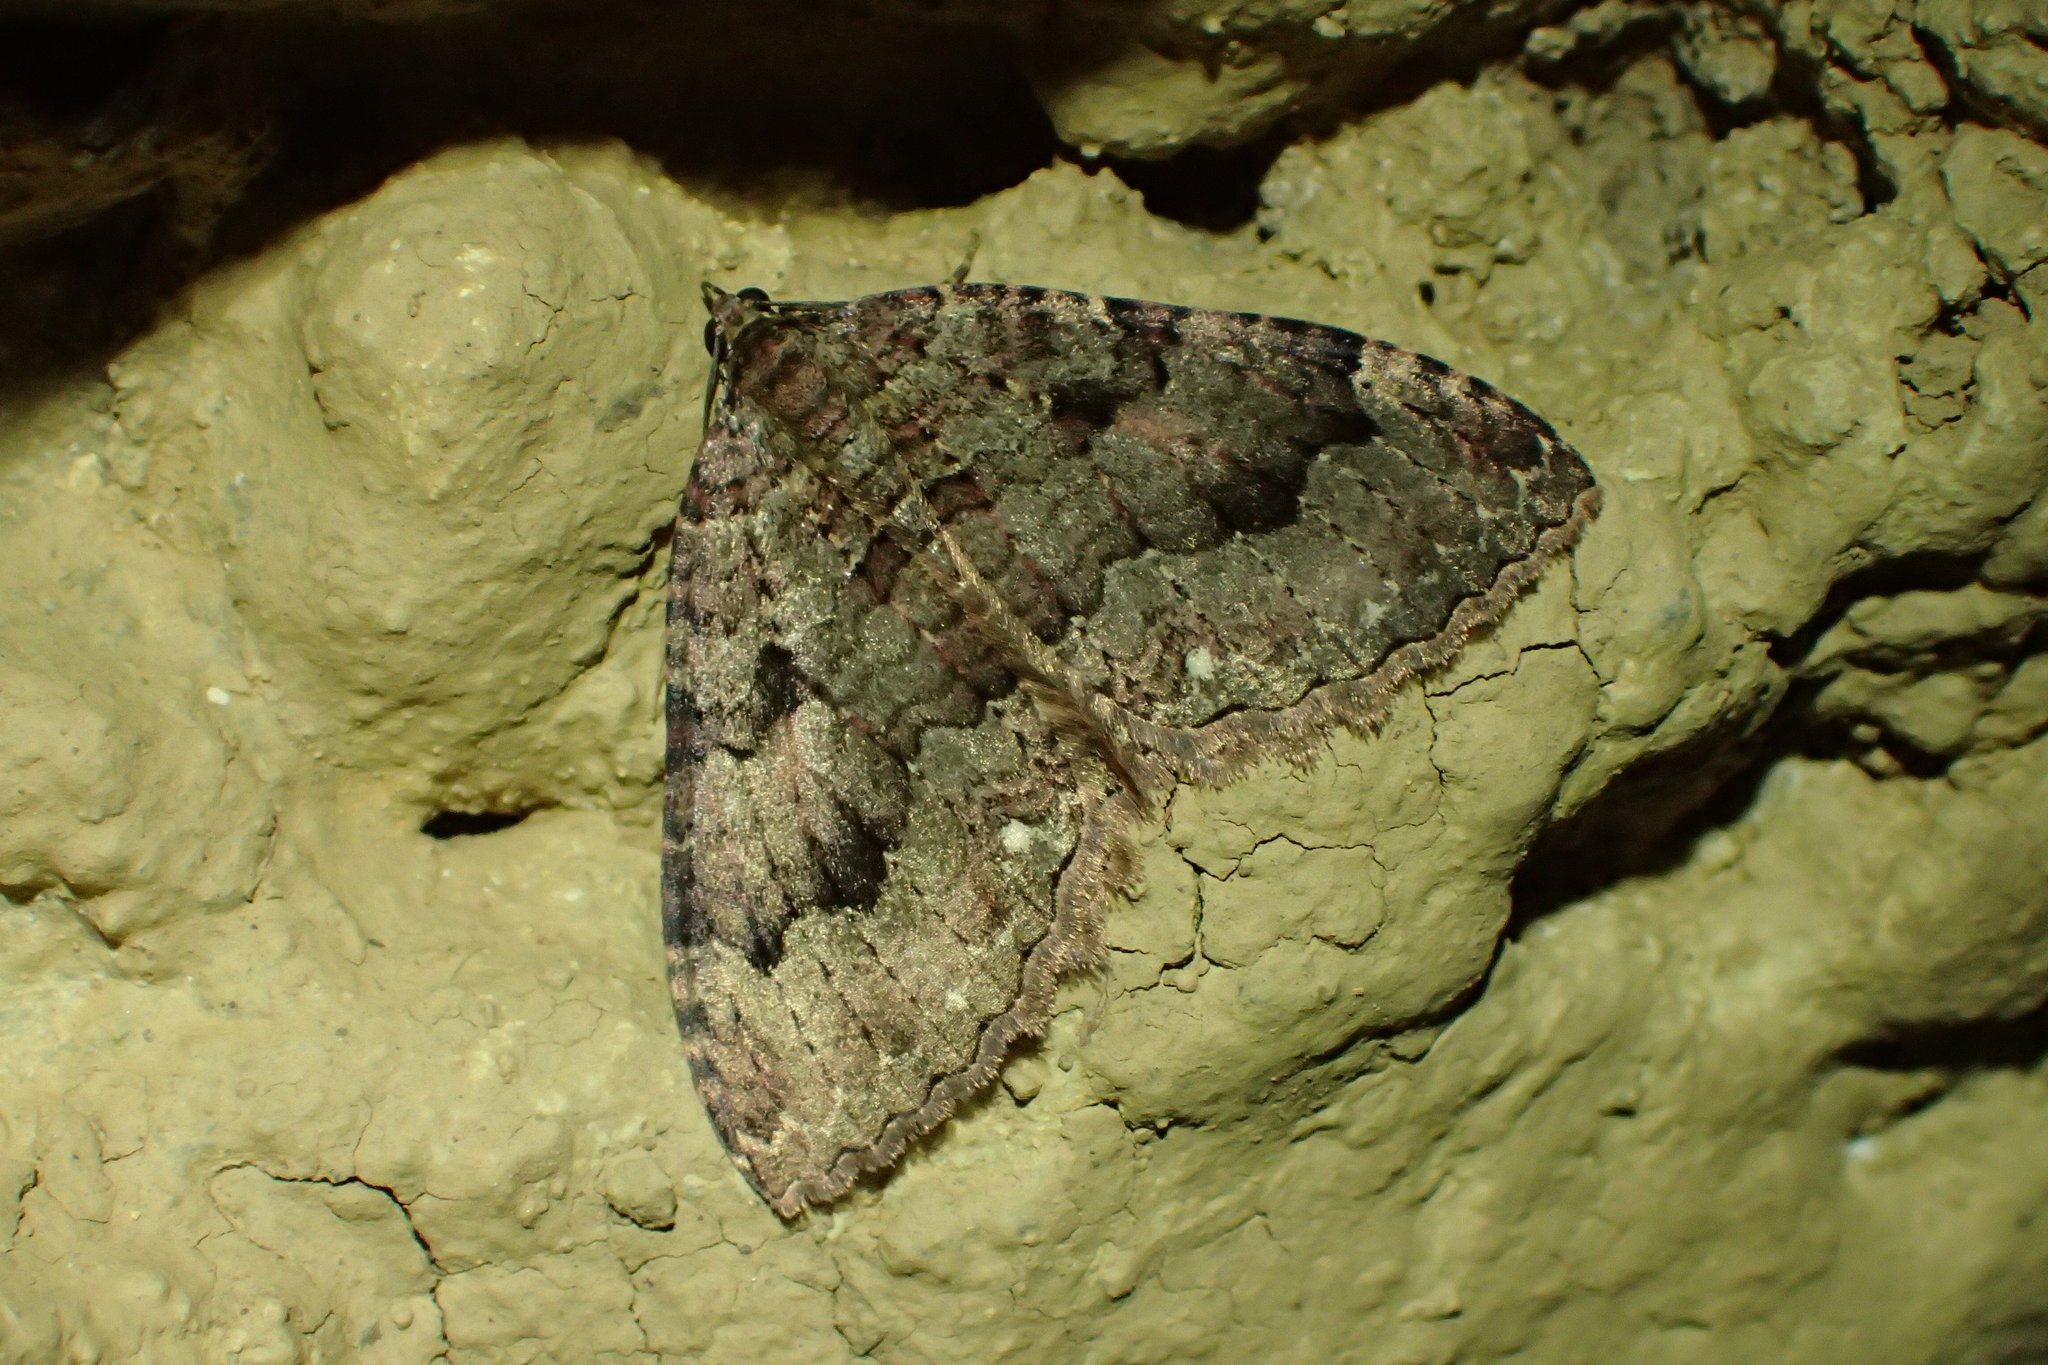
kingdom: Animalia
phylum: Arthropoda
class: Insecta
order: Lepidoptera
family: Geometridae
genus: Triphosa
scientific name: Triphosa dubitata
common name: Tissue
